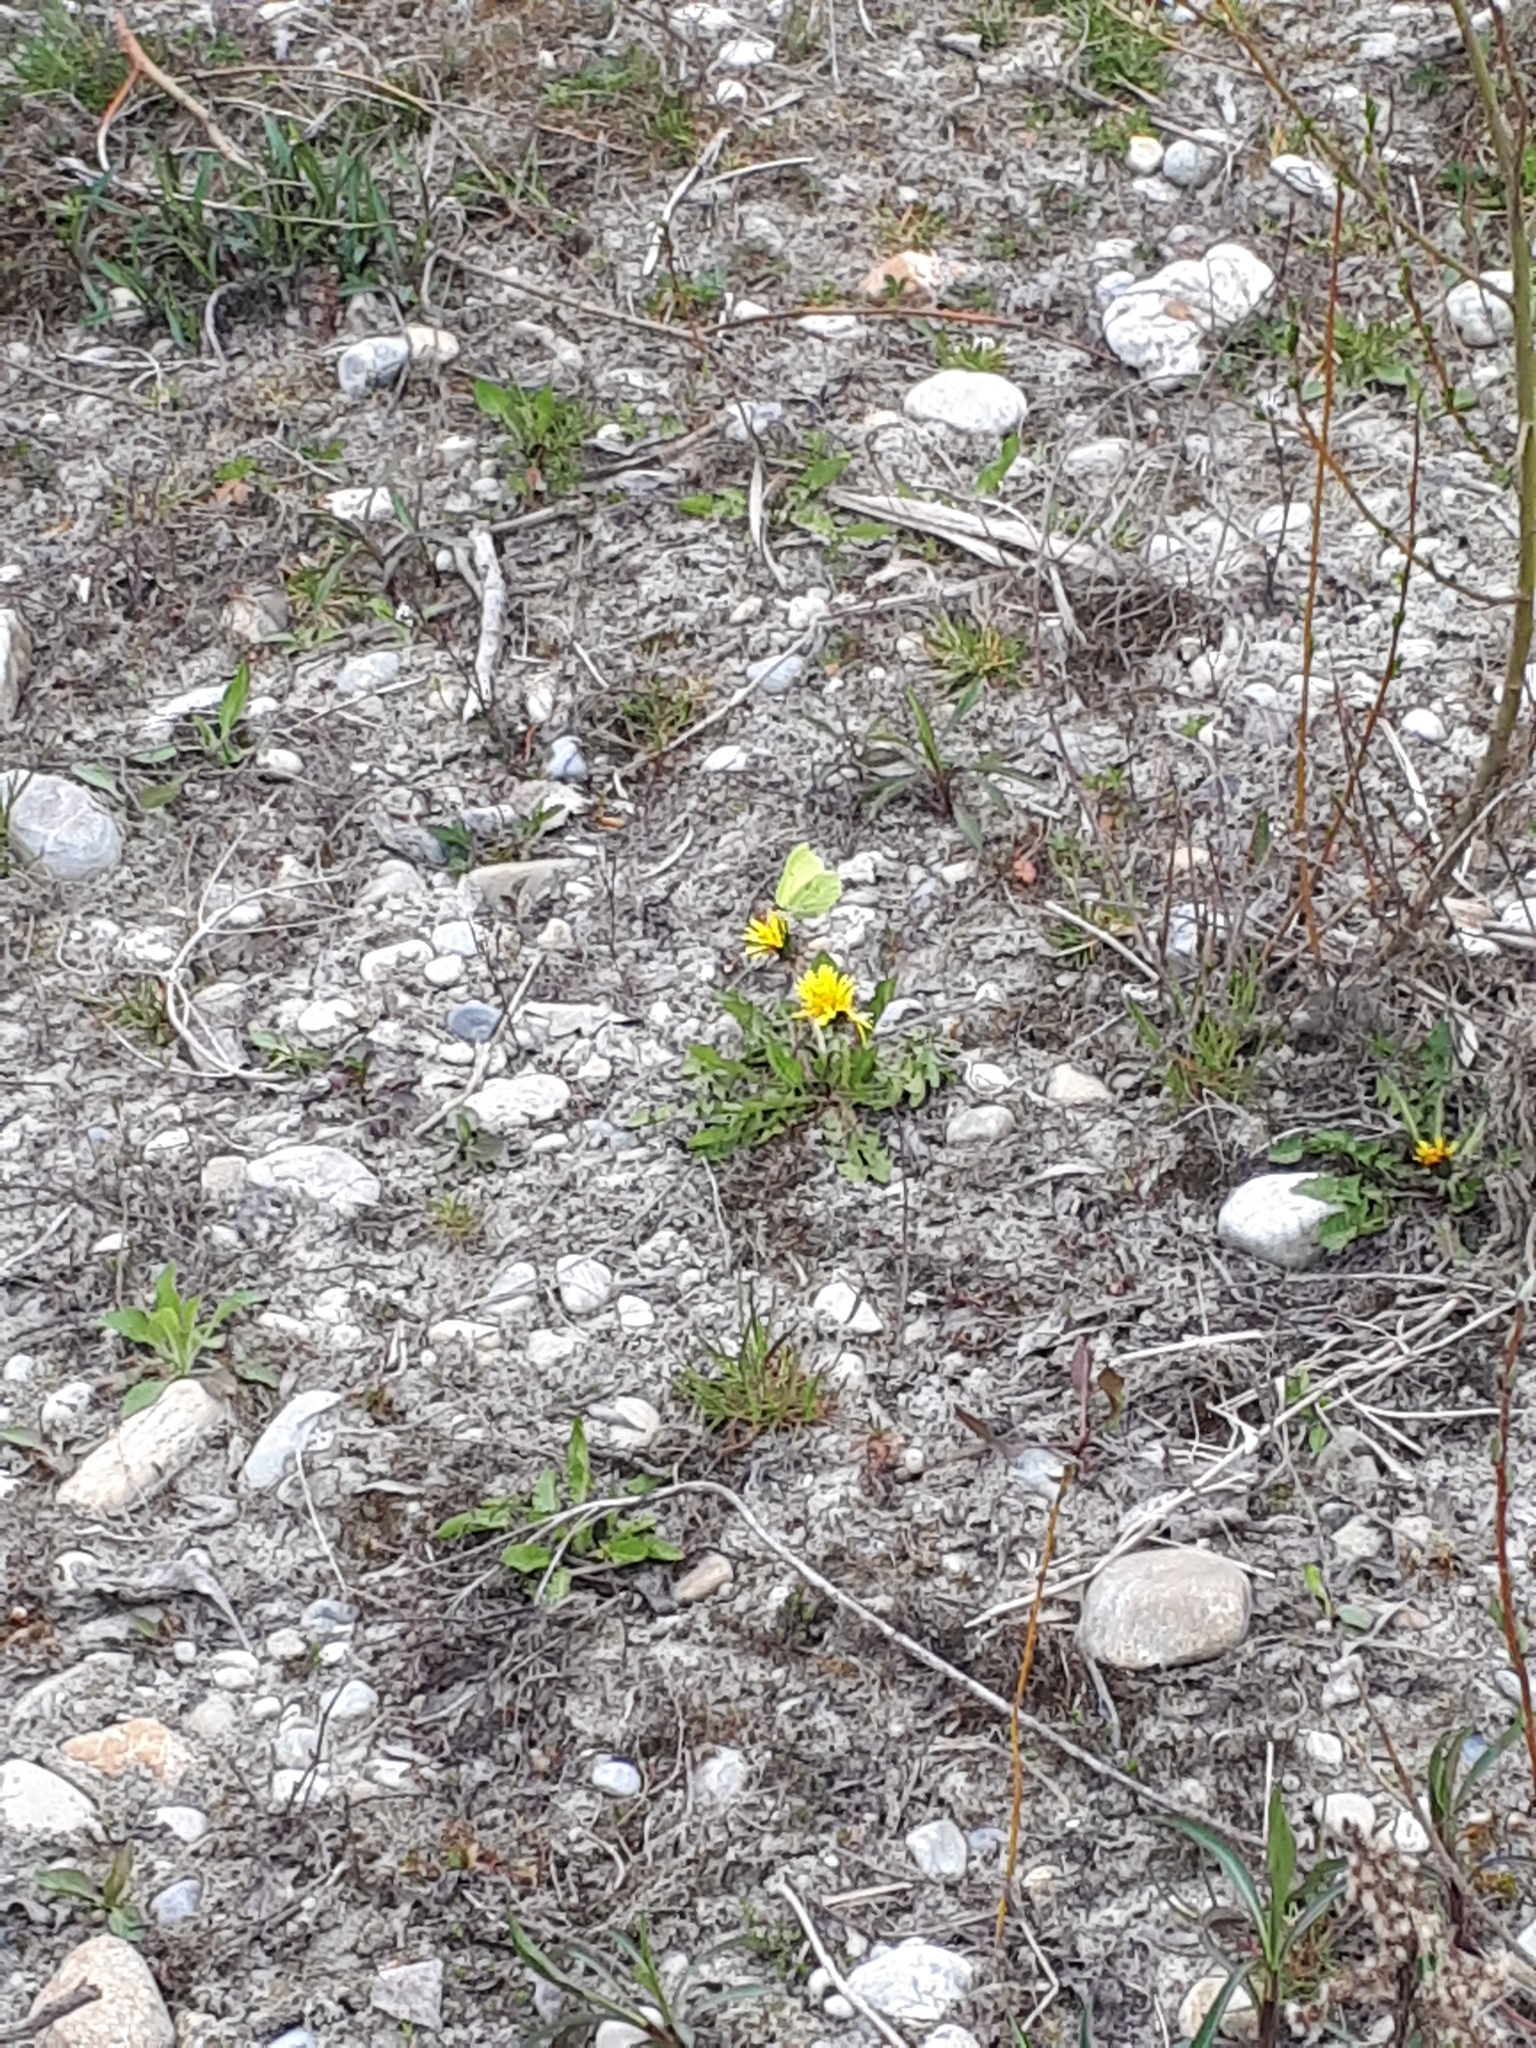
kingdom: Animalia
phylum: Arthropoda
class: Insecta
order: Lepidoptera
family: Pieridae
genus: Gonepteryx
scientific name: Gonepteryx rhamni
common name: Brimstone
